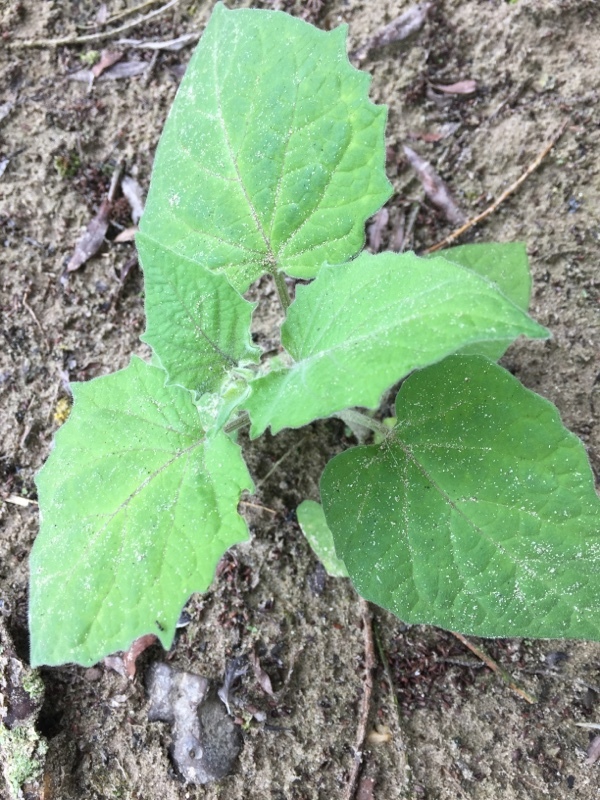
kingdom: Plantae
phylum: Tracheophyta
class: Magnoliopsida
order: Solanales
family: Solanaceae
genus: Physalis
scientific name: Physalis peruviana
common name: Cape-gooseberry
